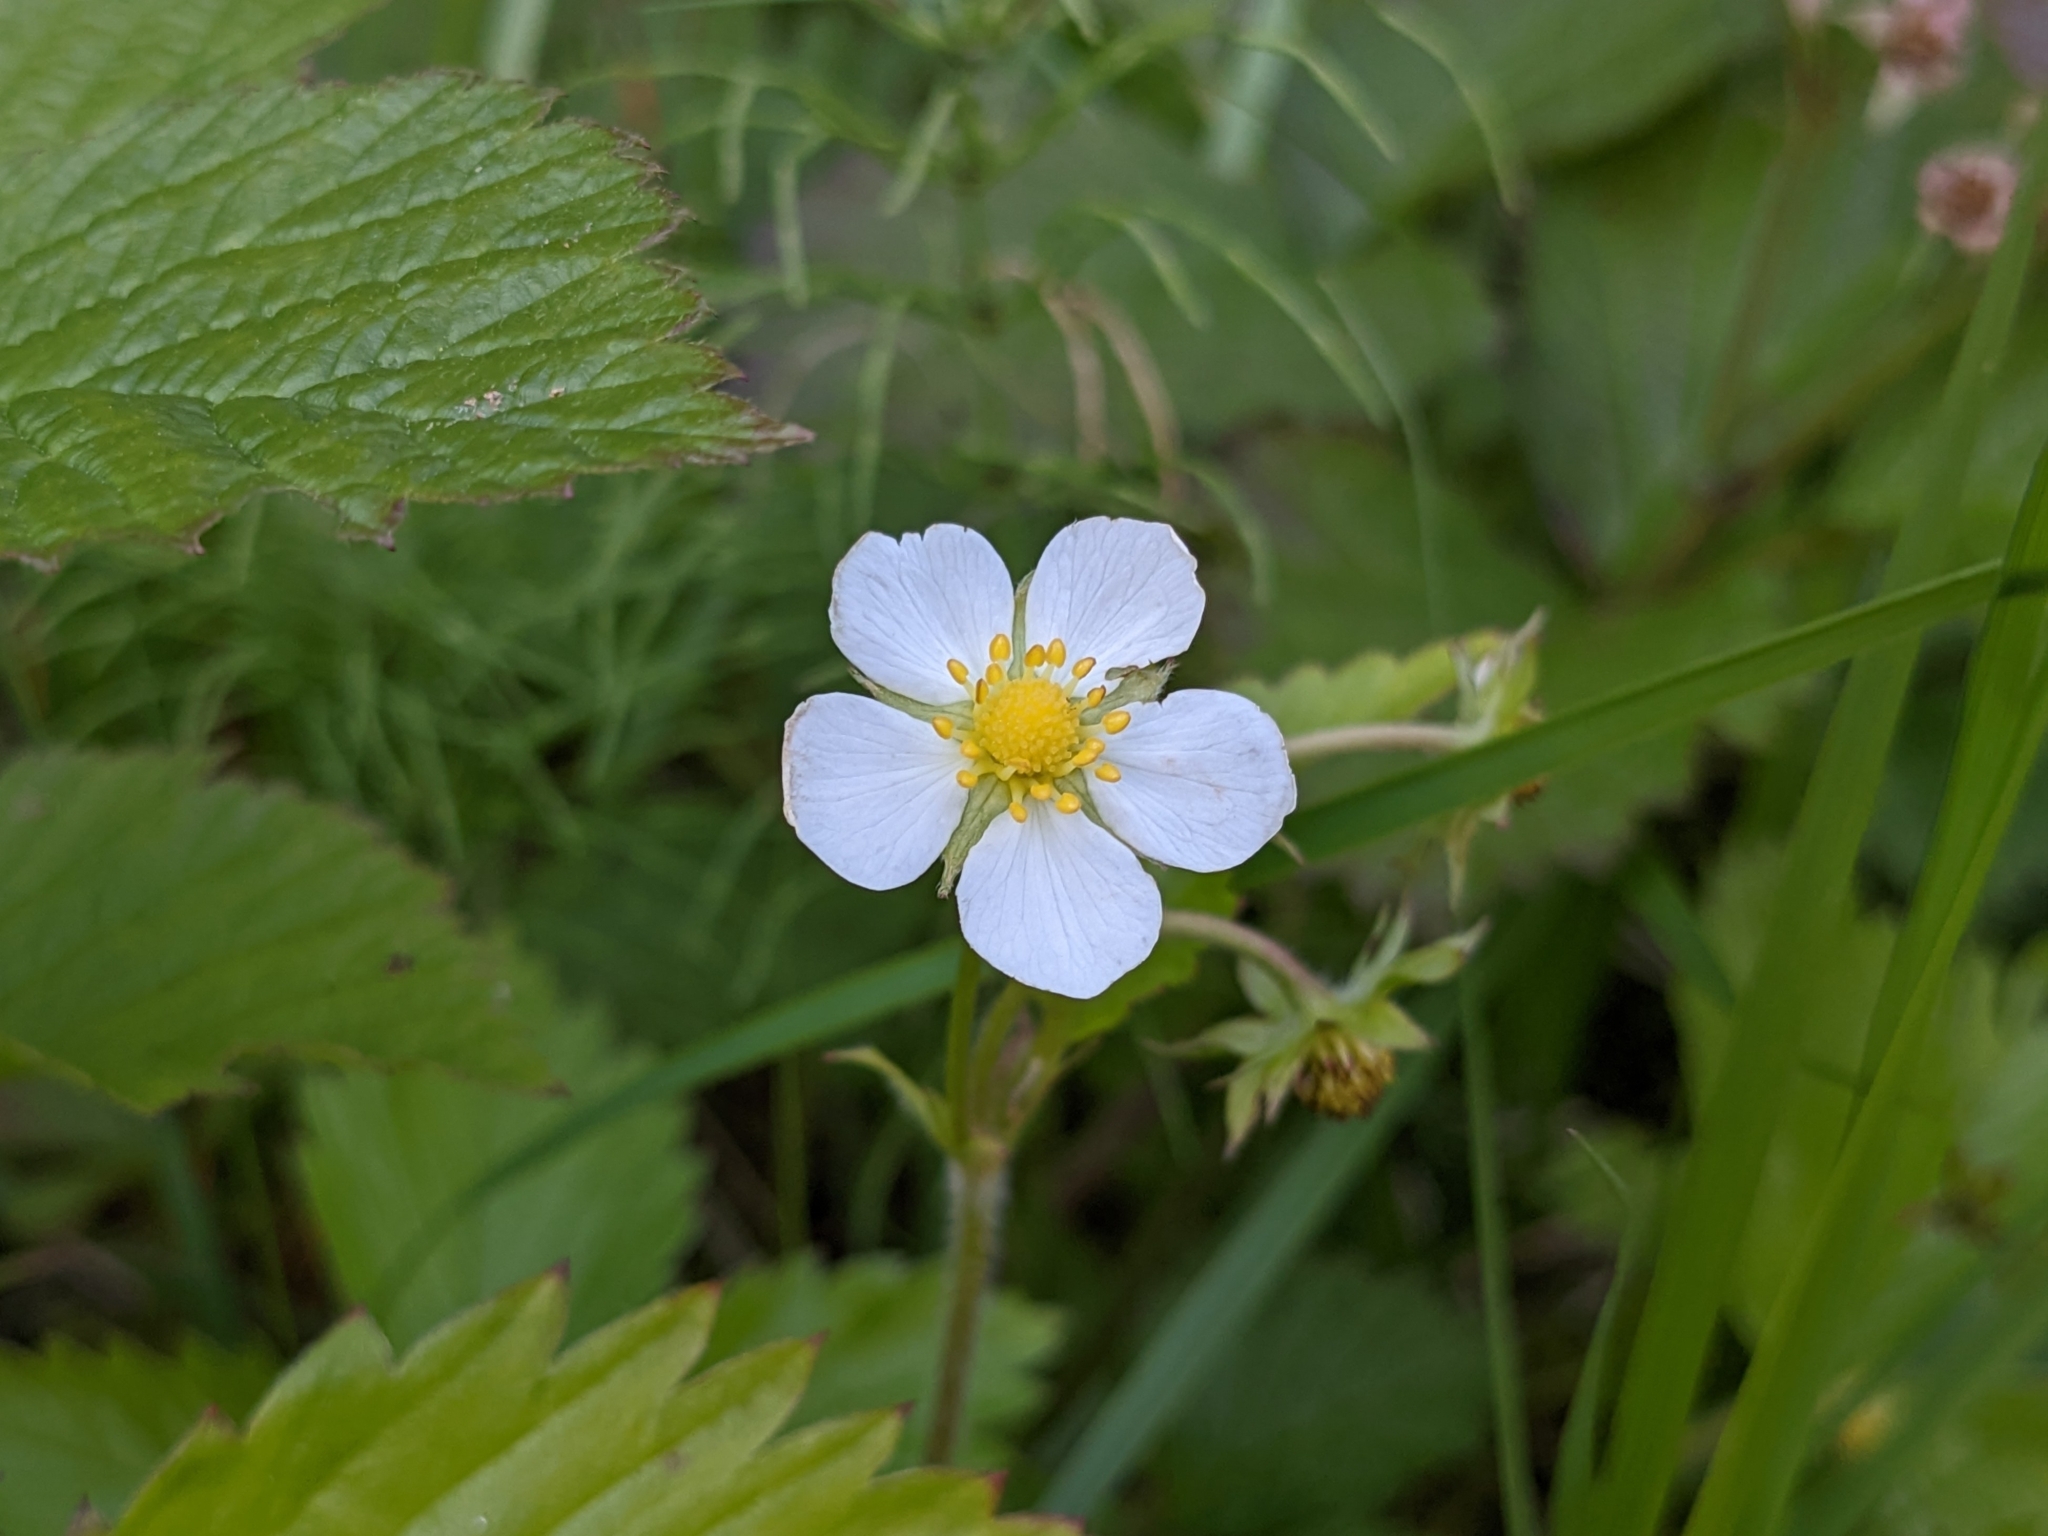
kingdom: Plantae
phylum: Tracheophyta
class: Magnoliopsida
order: Rosales
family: Rosaceae
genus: Fragaria
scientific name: Fragaria vesca
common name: Wild strawberry
